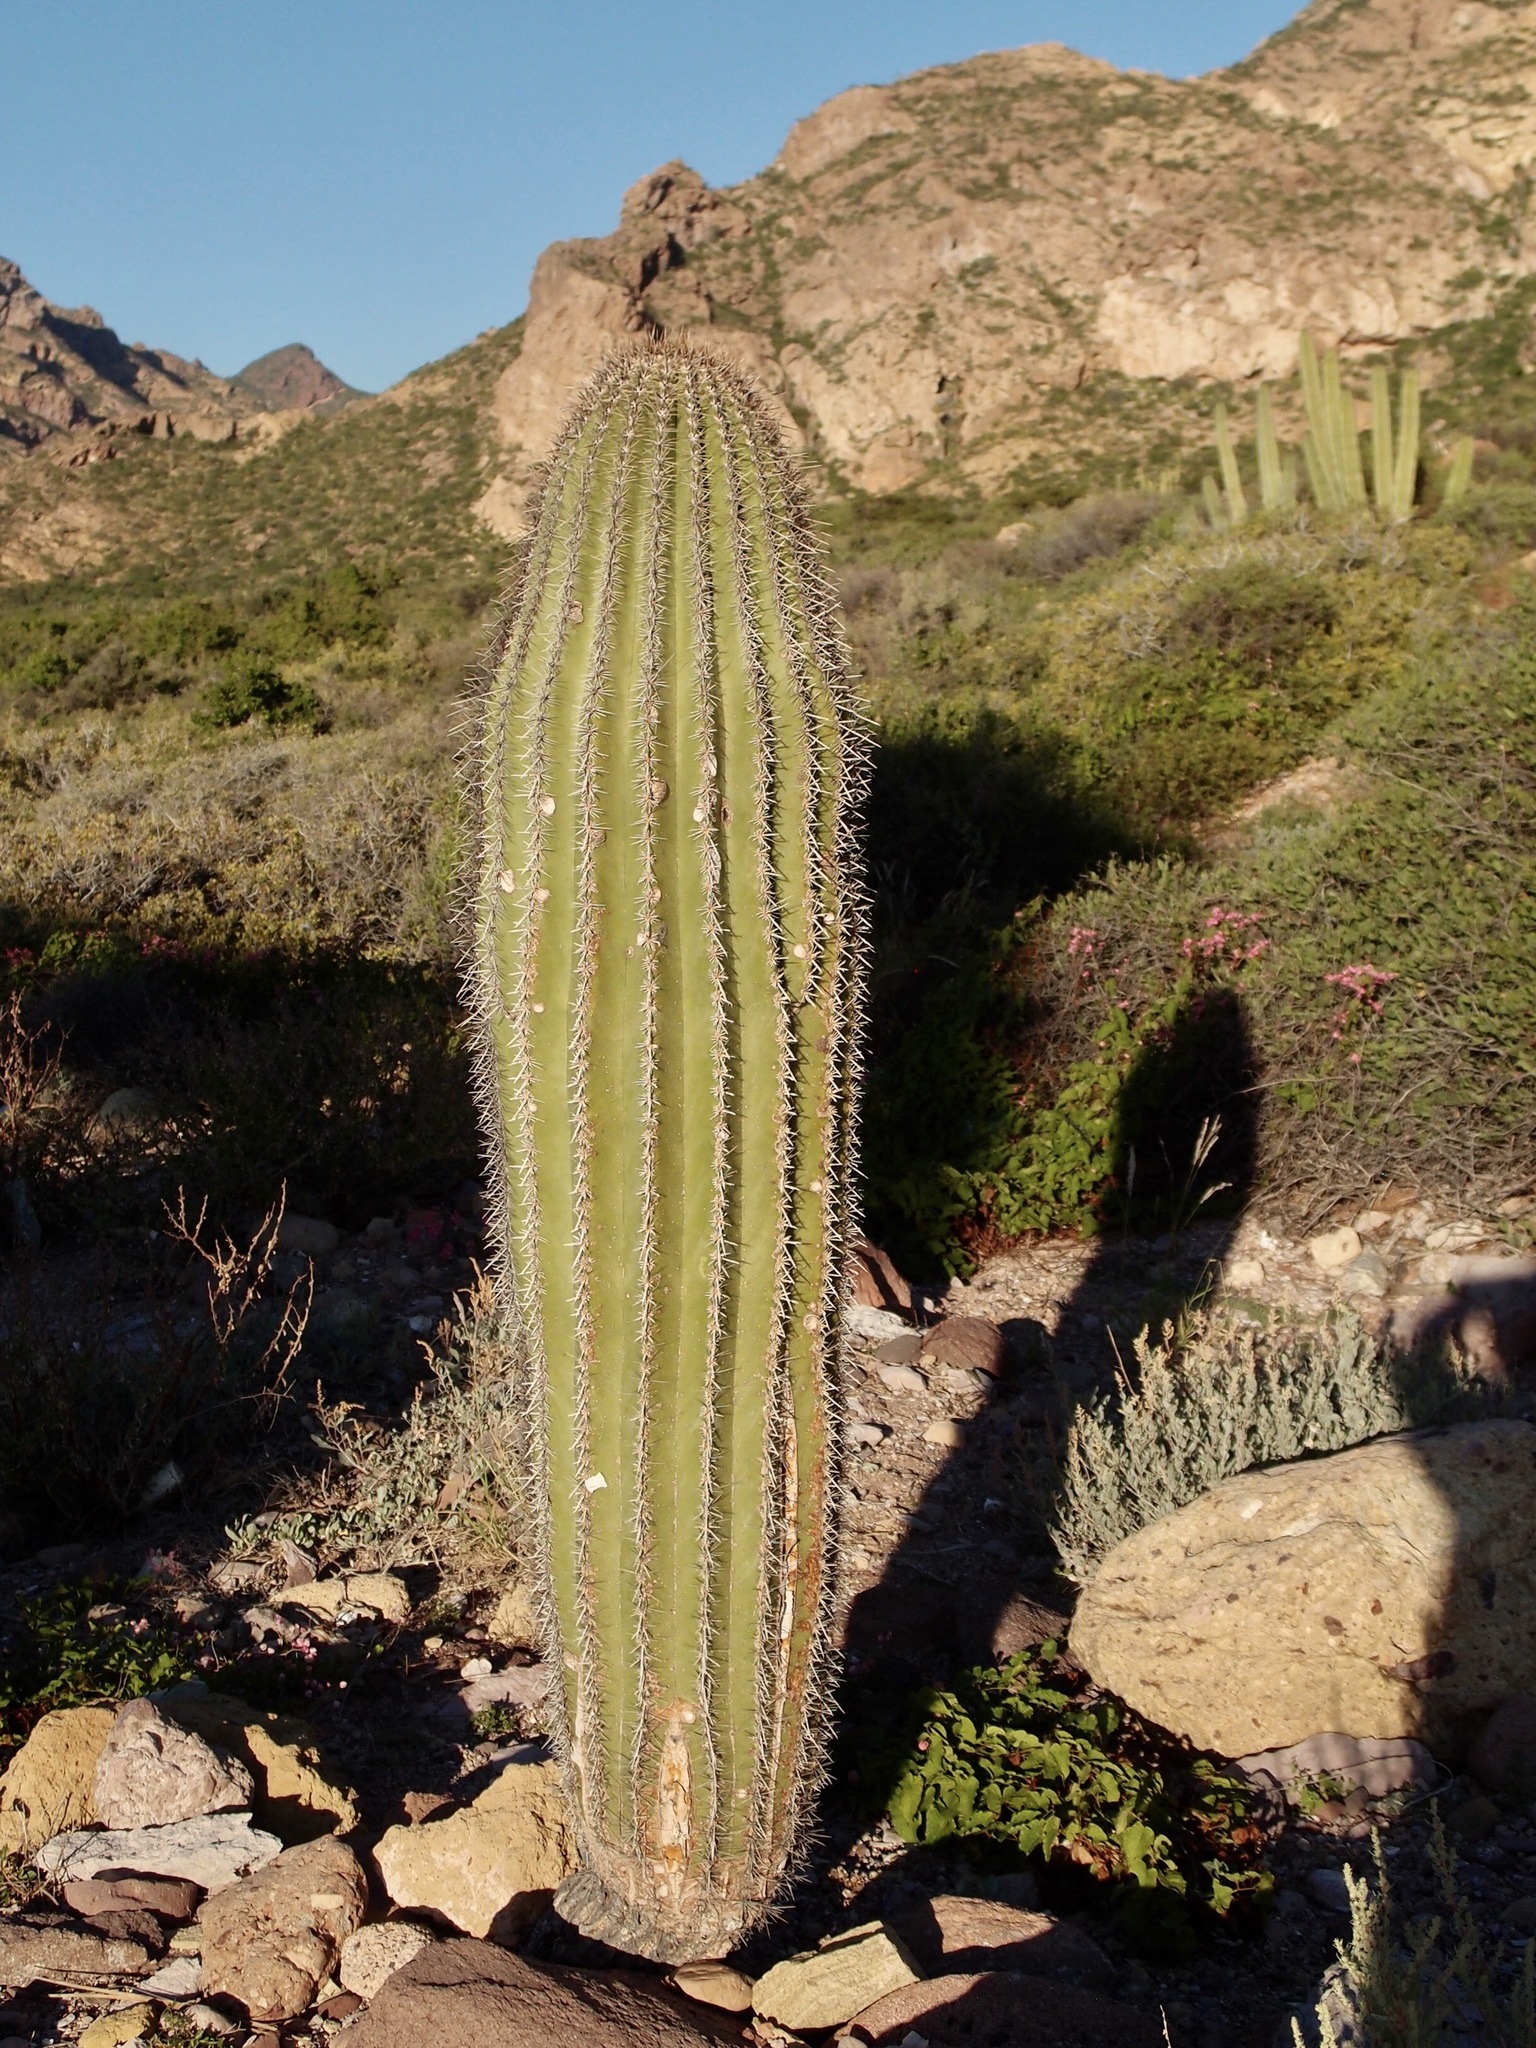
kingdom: Plantae
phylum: Tracheophyta
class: Magnoliopsida
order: Caryophyllales
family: Cactaceae
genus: Carnegiea
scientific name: Carnegiea gigantea
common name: Saguaro
